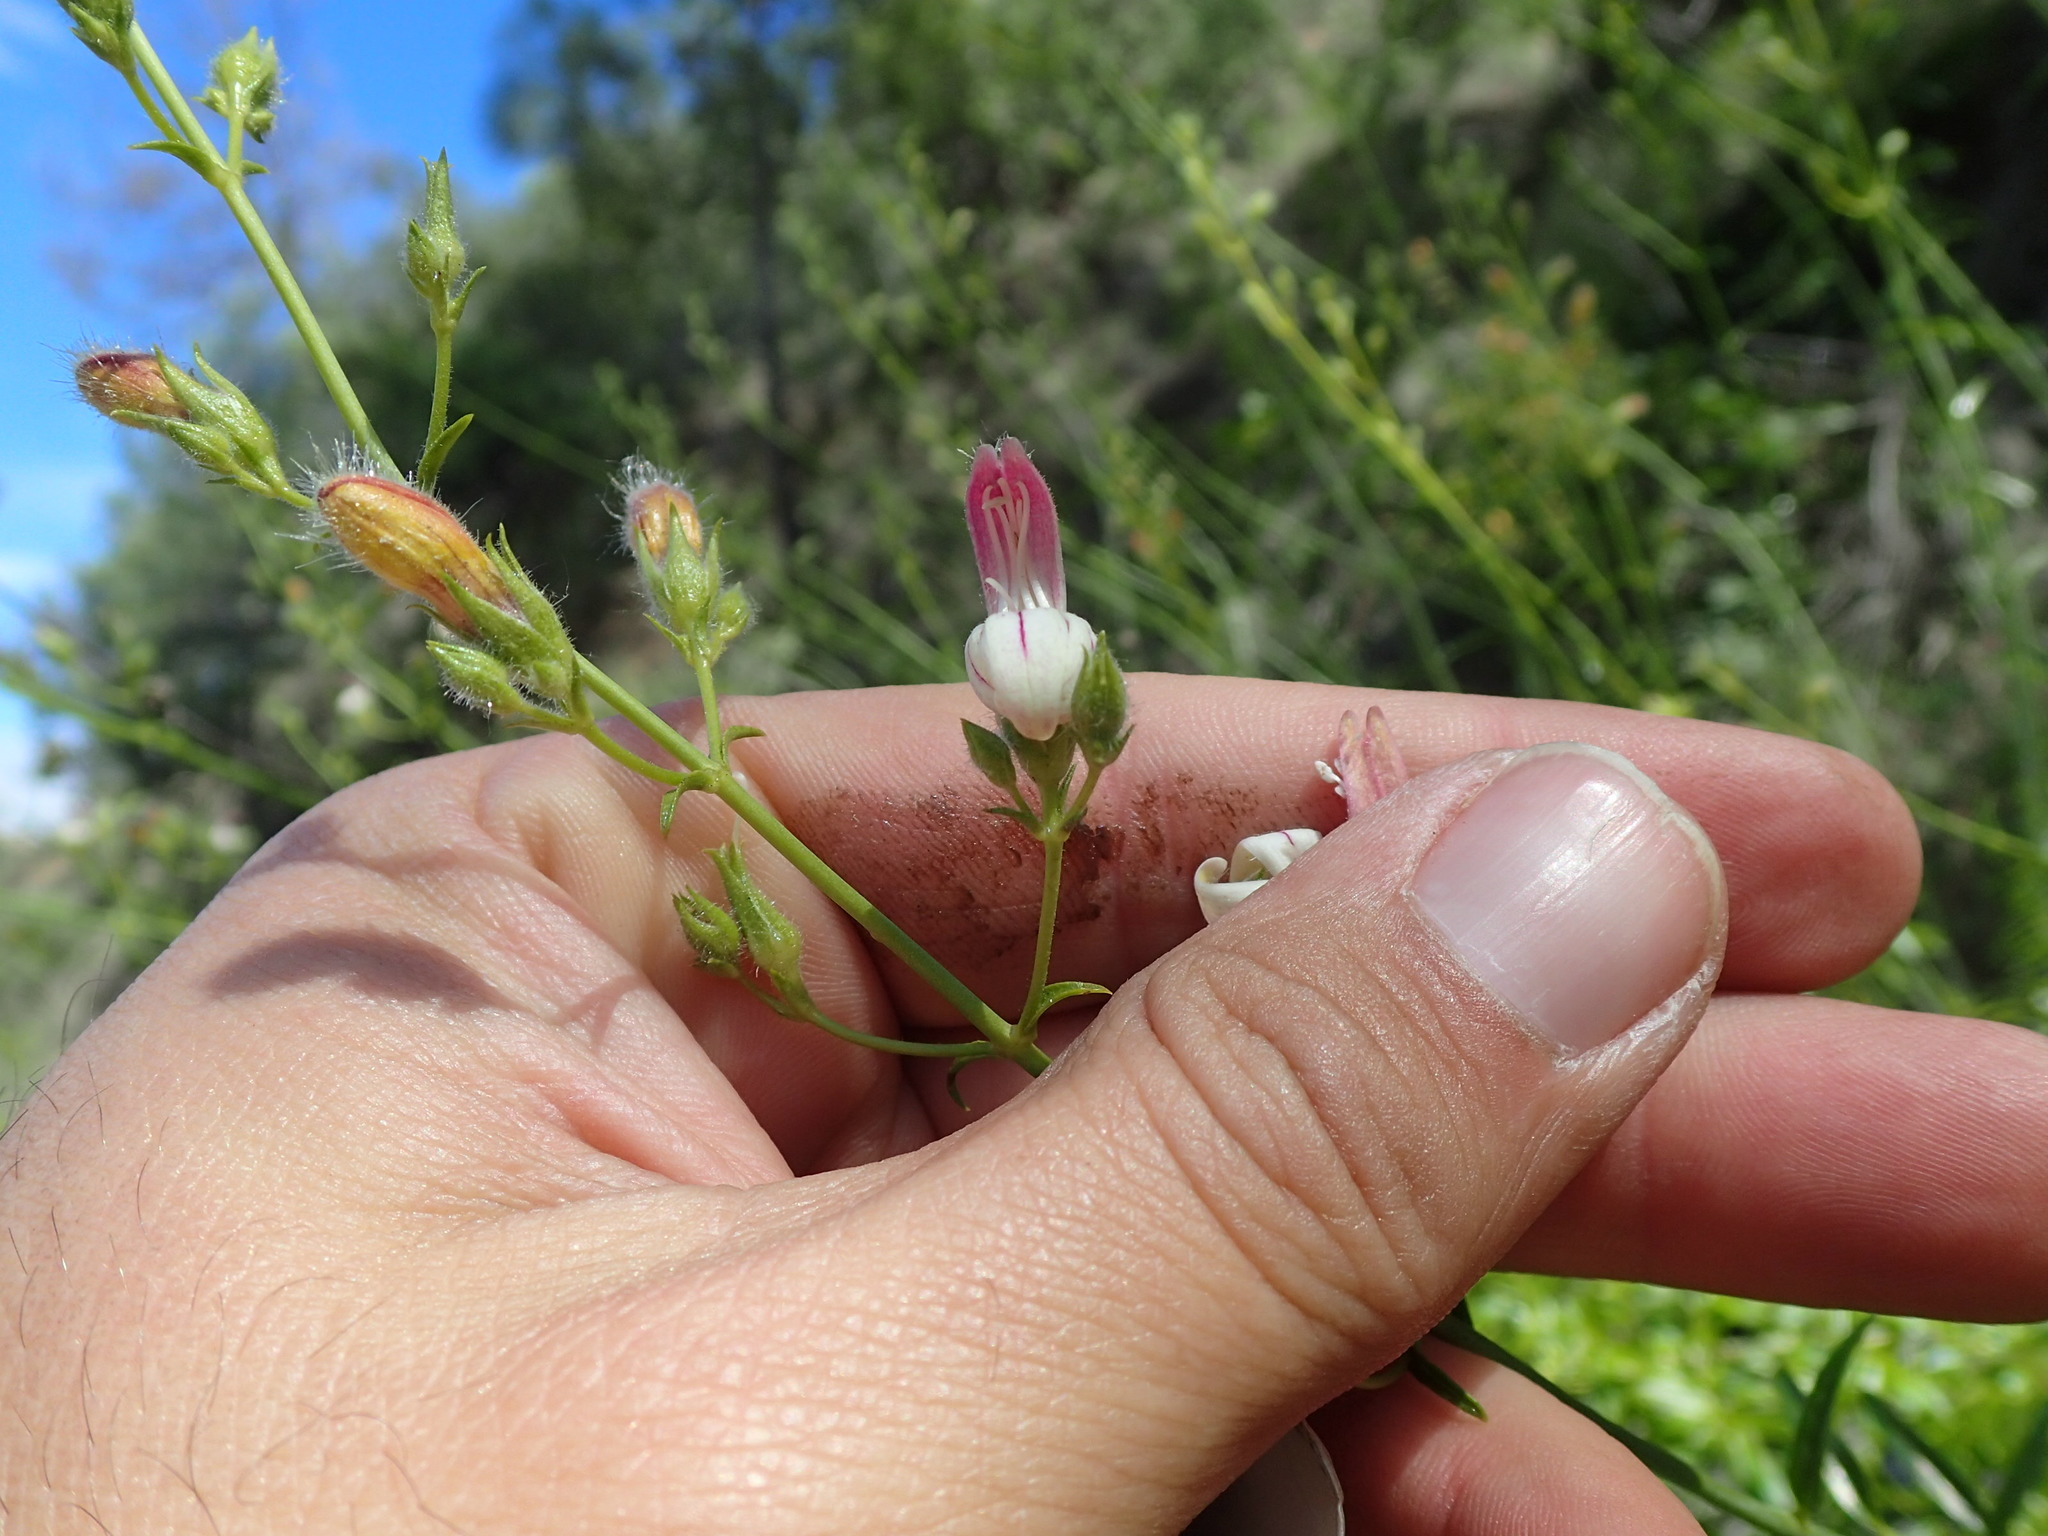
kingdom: Plantae
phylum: Tracheophyta
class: Magnoliopsida
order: Lamiales
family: Plantaginaceae
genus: Keckiella
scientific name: Keckiella breviflora
